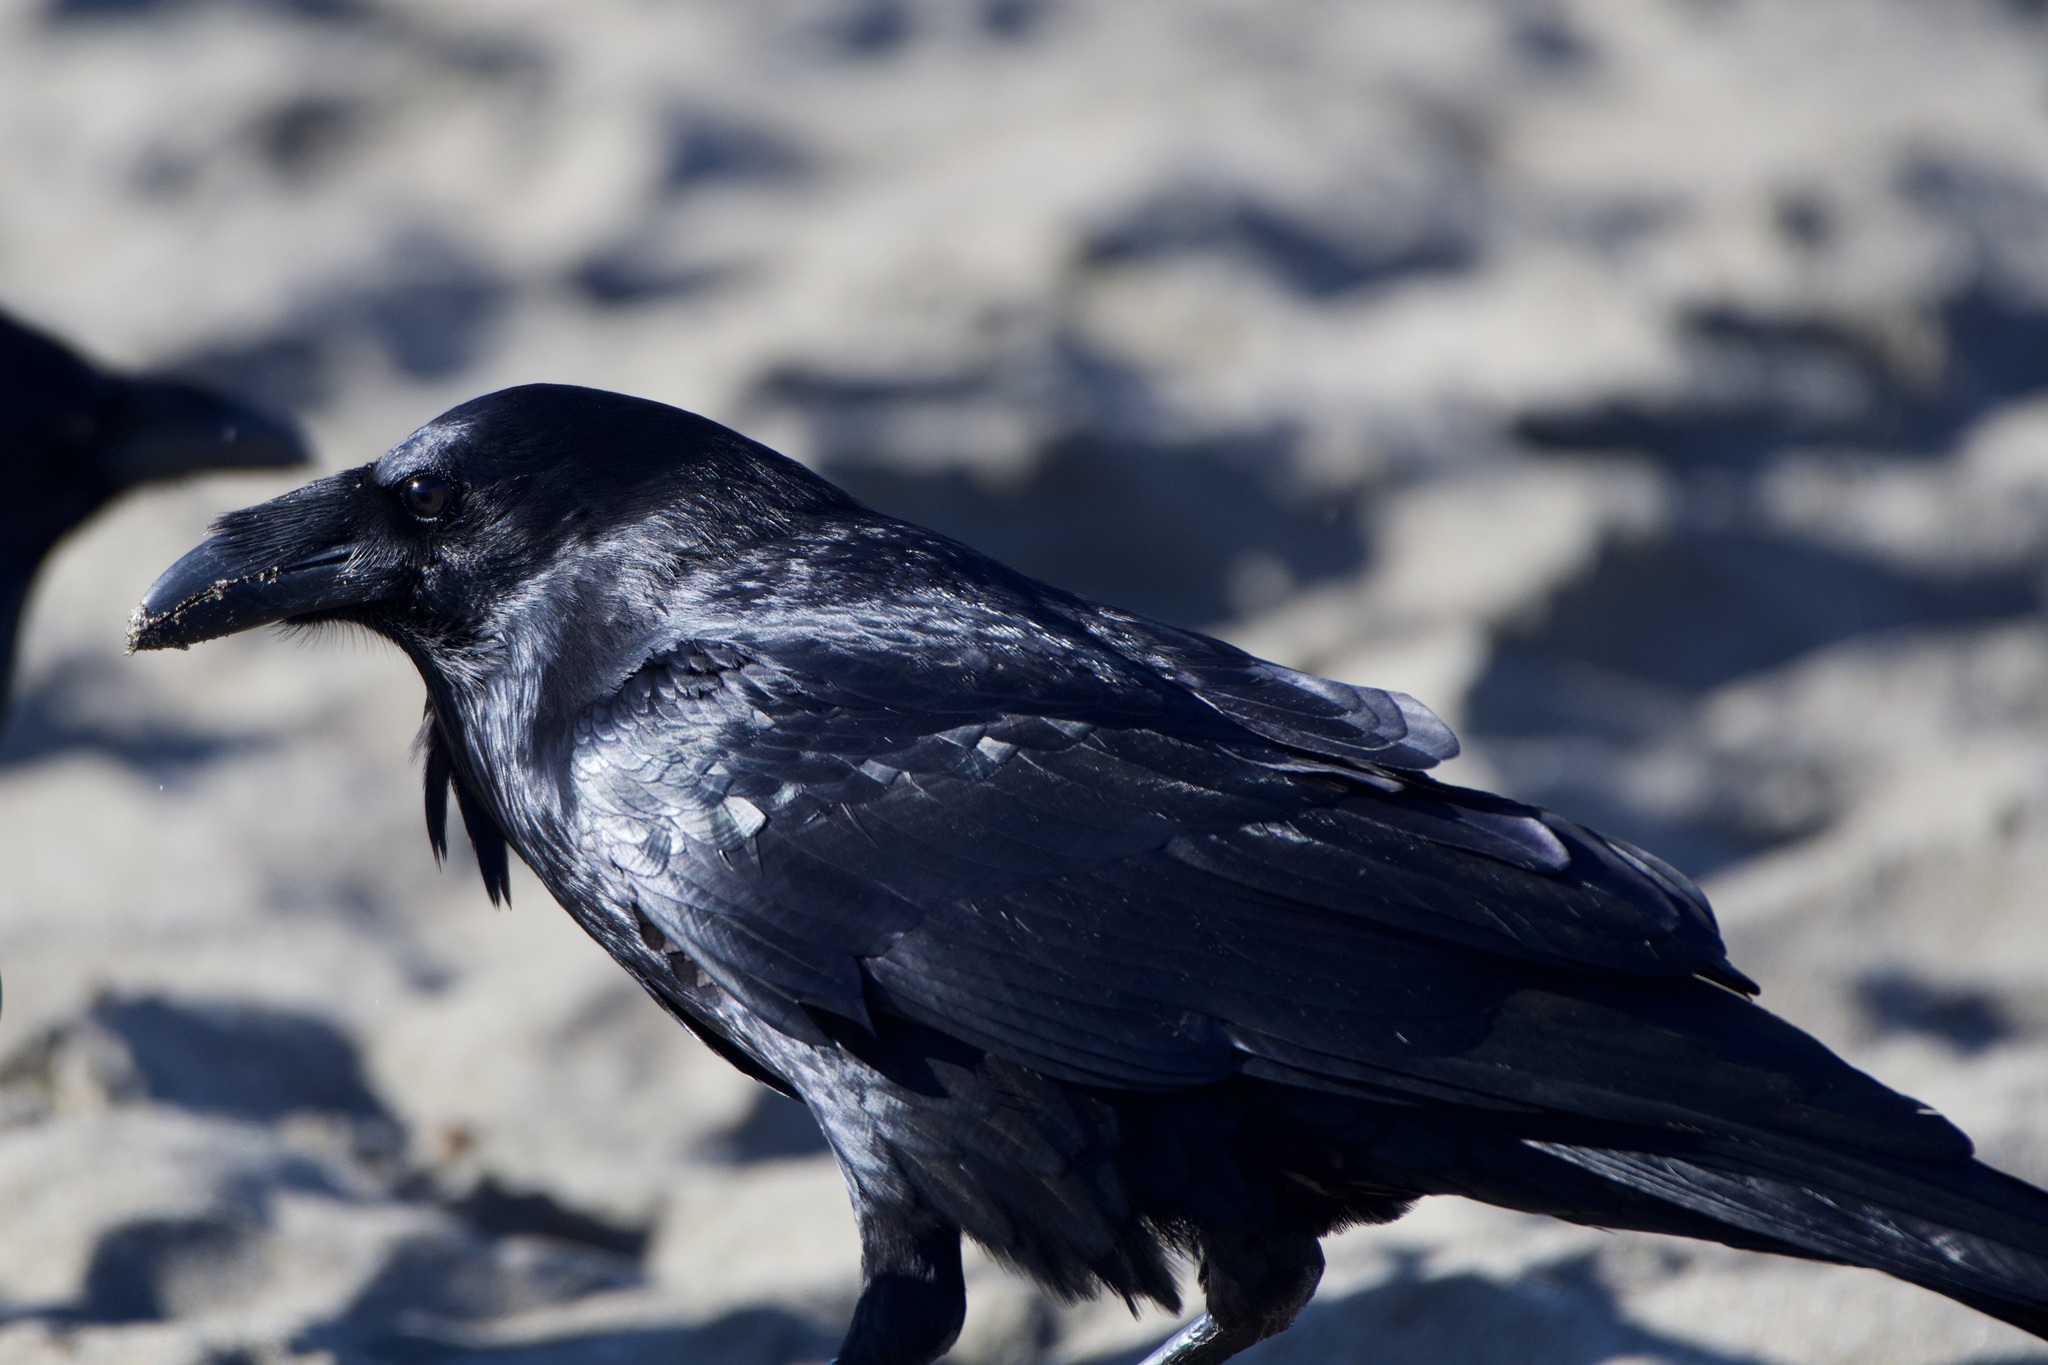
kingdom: Animalia
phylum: Chordata
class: Aves
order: Passeriformes
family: Corvidae
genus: Corvus
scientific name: Corvus corax
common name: Common raven
